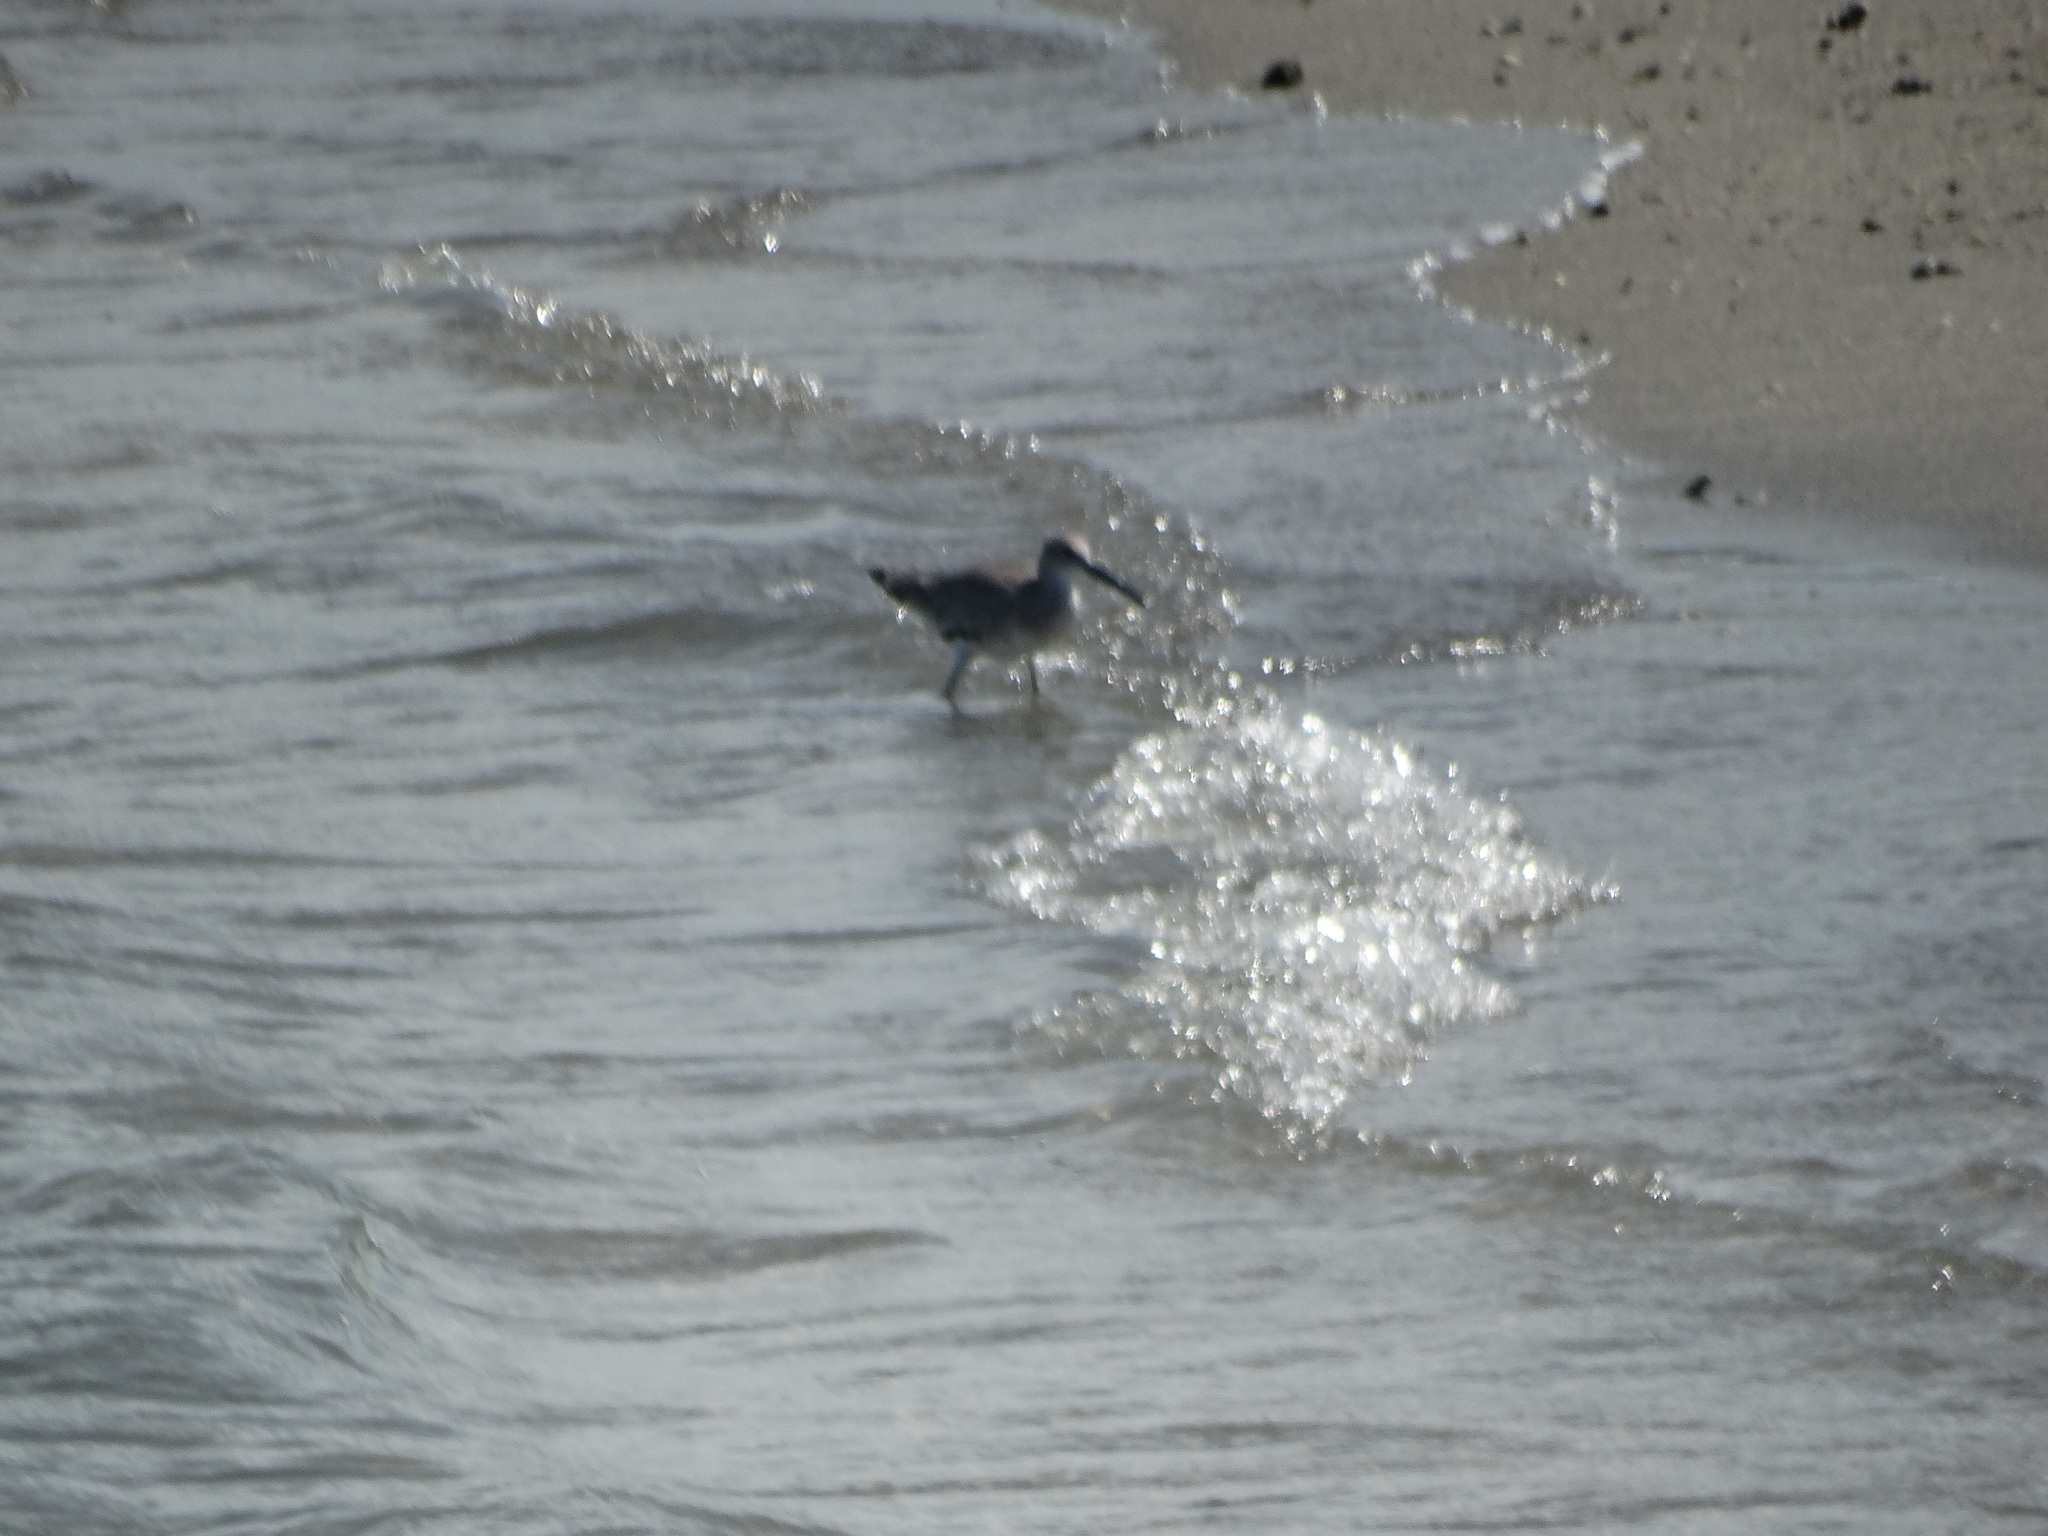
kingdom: Animalia
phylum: Chordata
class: Aves
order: Charadriiformes
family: Scolopacidae
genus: Tringa
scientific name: Tringa semipalmata
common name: Willet
